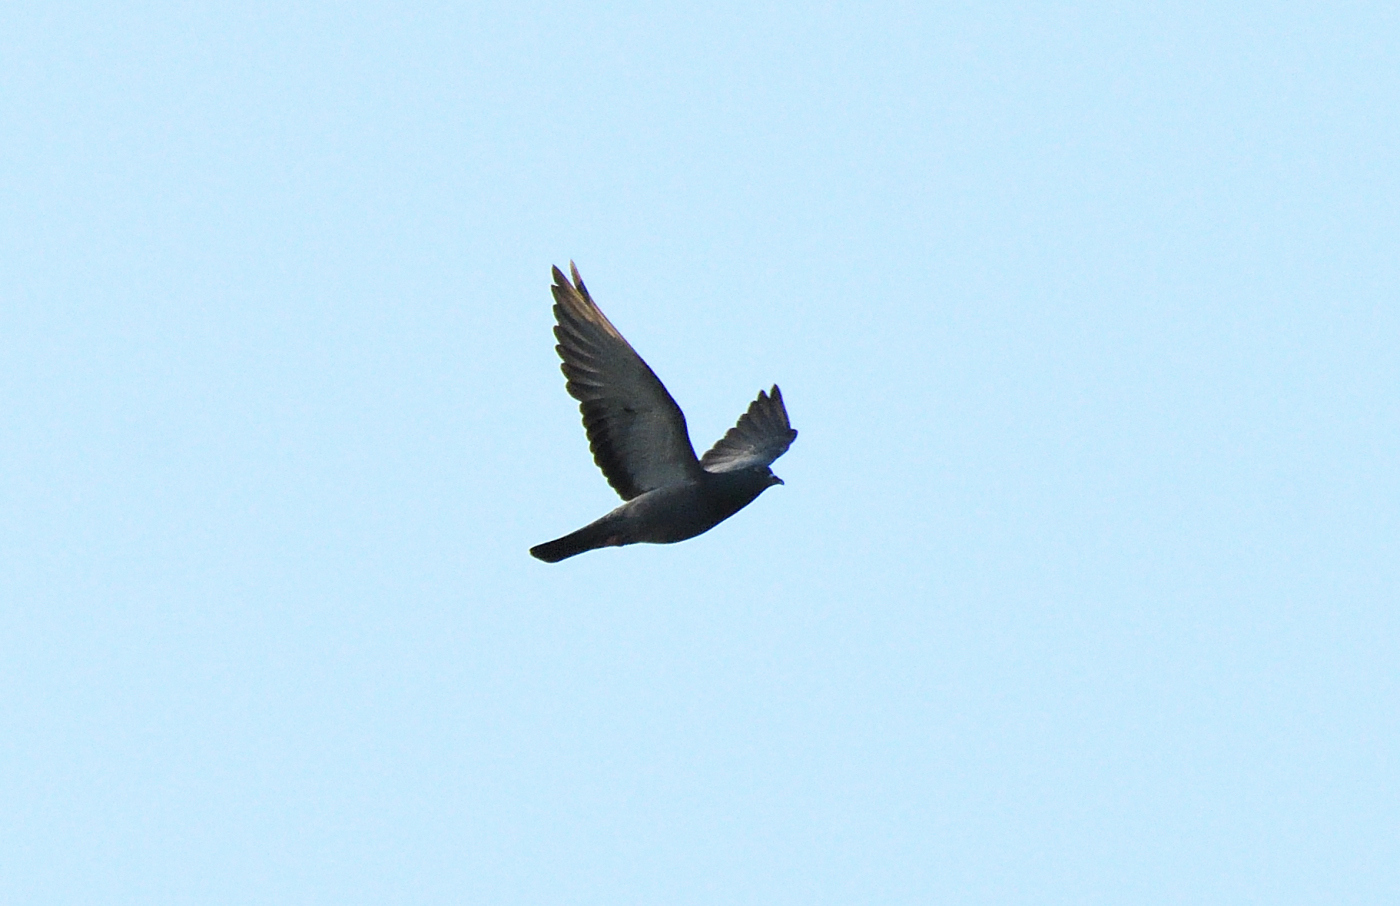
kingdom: Animalia
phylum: Chordata
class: Aves
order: Columbiformes
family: Columbidae
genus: Columba
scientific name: Columba livia
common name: Rock pigeon
